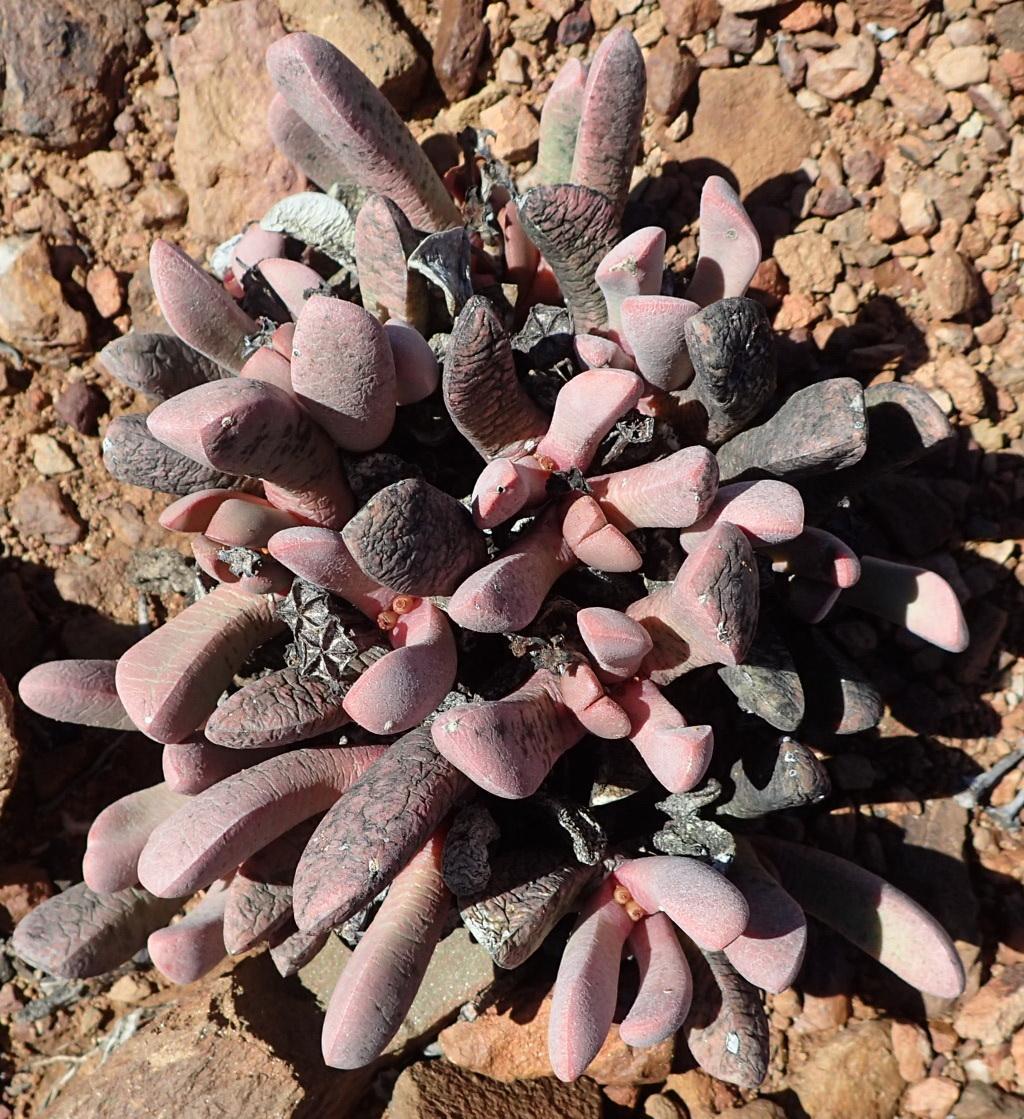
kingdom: Plantae
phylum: Tracheophyta
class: Magnoliopsida
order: Caryophyllales
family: Aizoaceae
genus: Cerochlamys
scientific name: Cerochlamys pachyphylla
